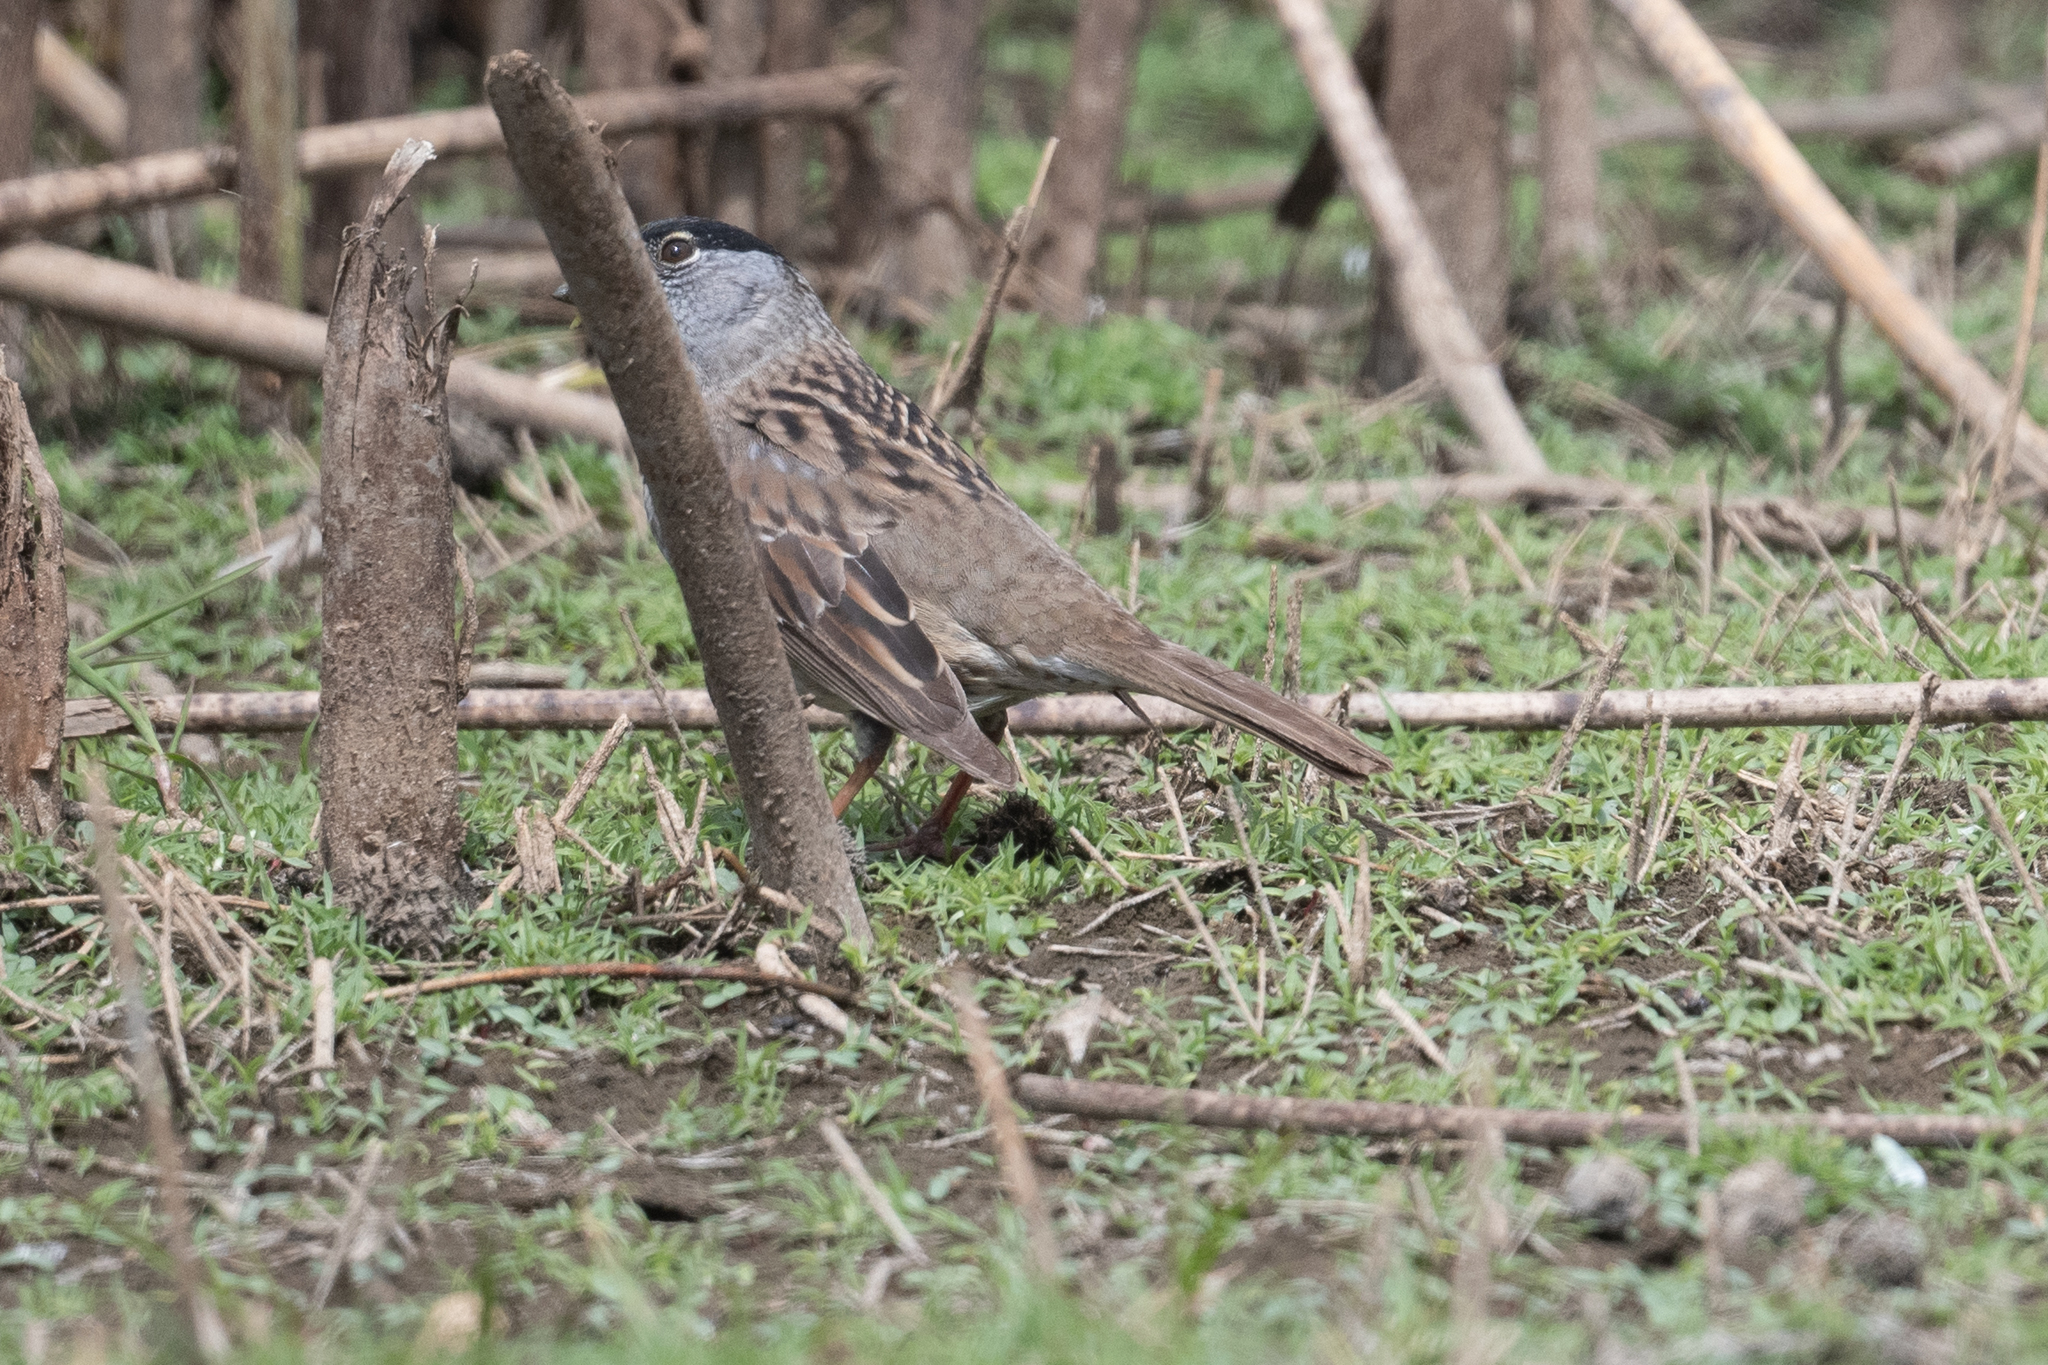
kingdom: Animalia
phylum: Chordata
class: Aves
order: Passeriformes
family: Passerellidae
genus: Zonotrichia
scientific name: Zonotrichia atricapilla
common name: Golden-crowned sparrow
